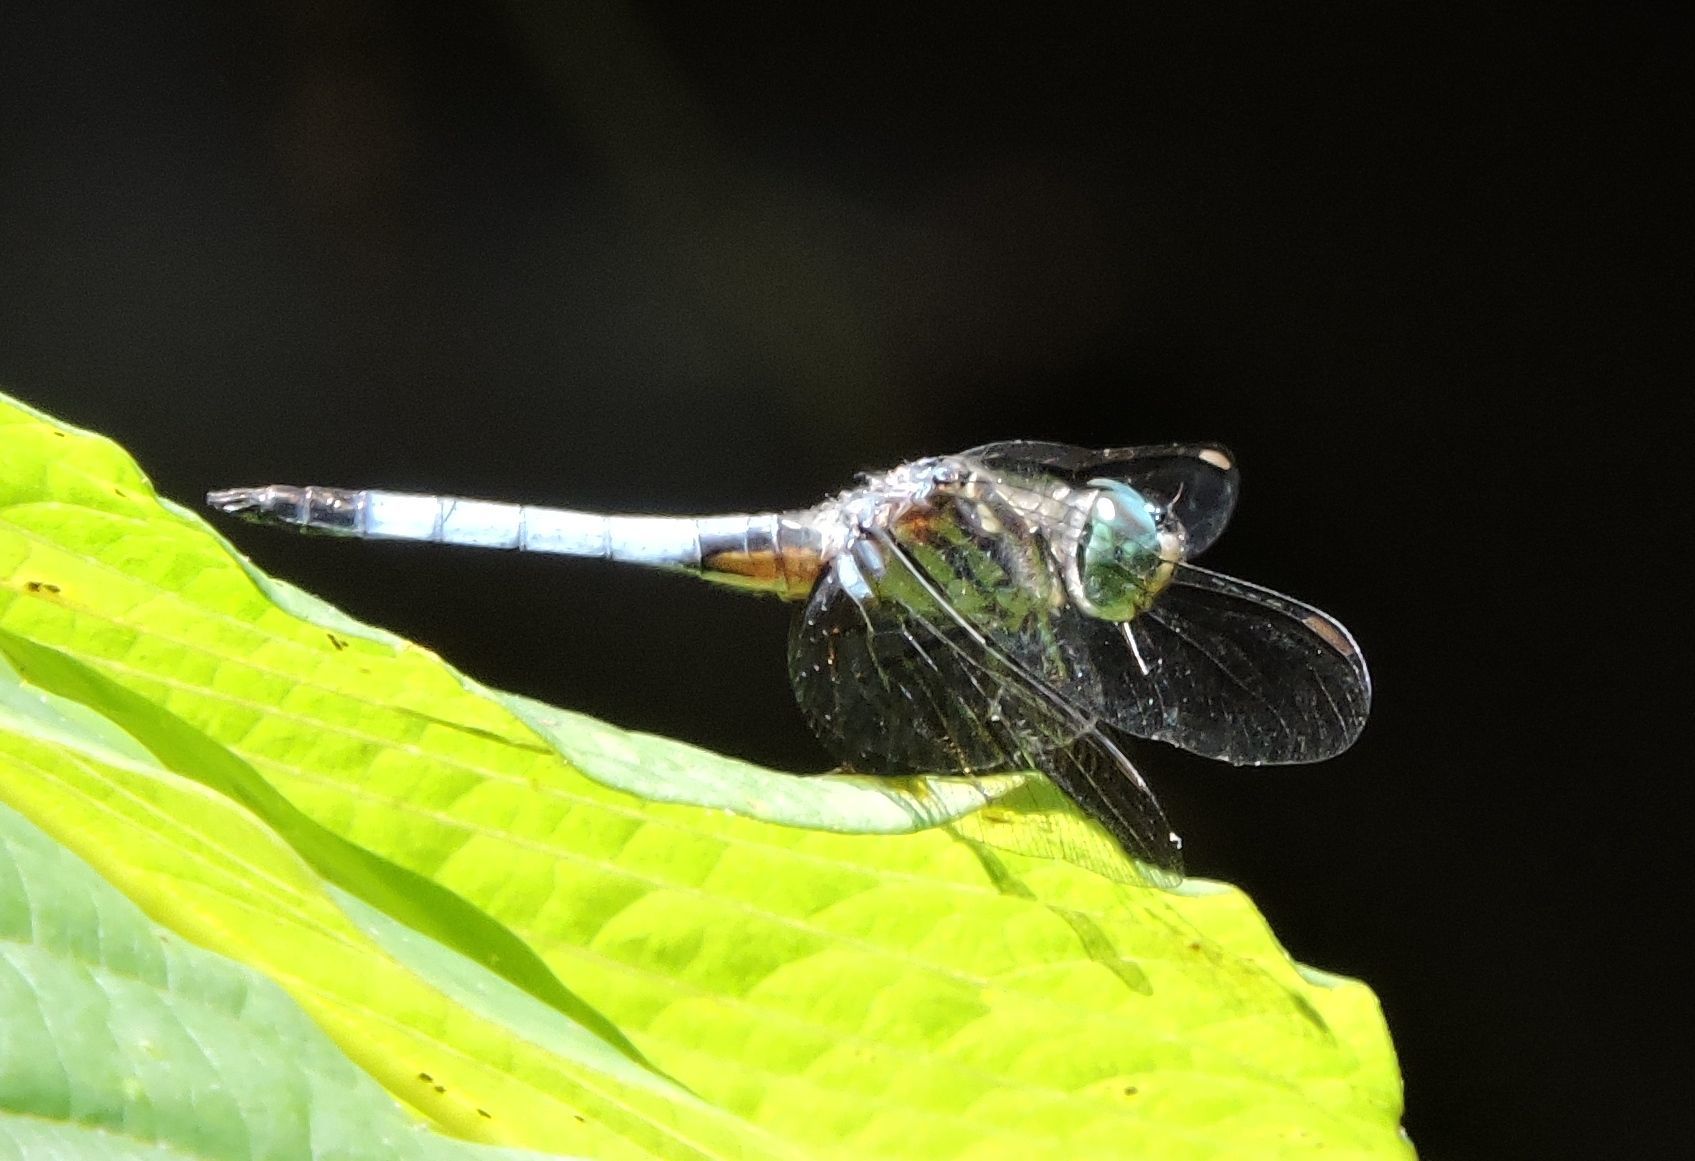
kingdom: Animalia
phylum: Arthropoda
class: Insecta
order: Odonata
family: Libellulidae
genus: Pachydiplax
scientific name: Pachydiplax longipennis
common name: Blue dasher
